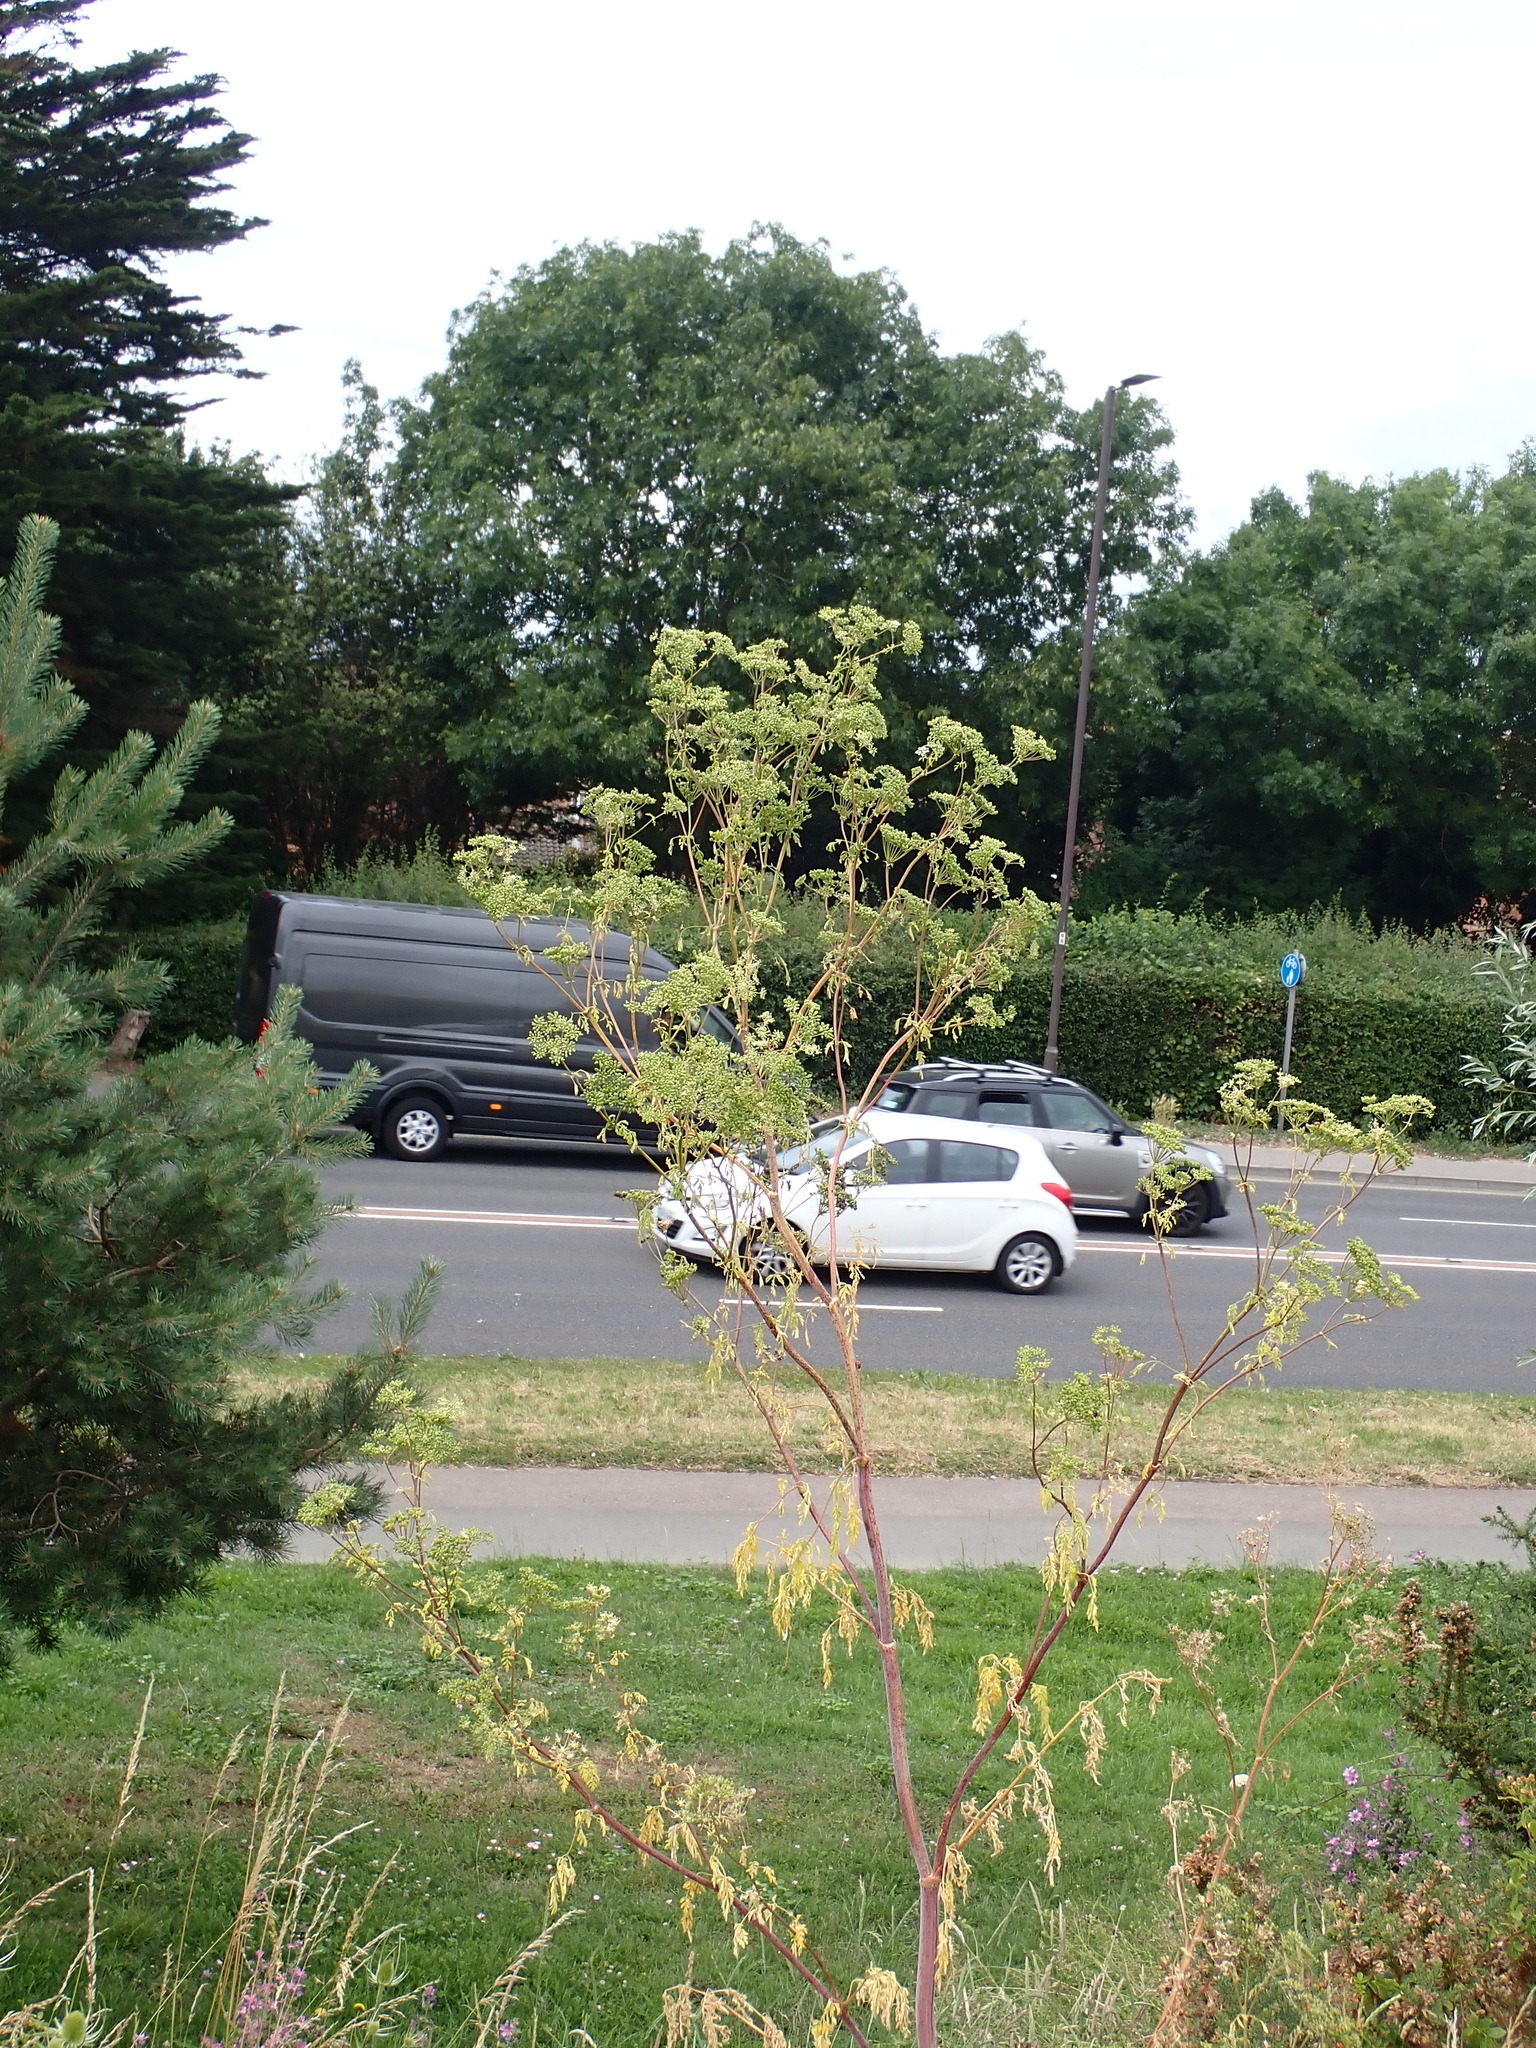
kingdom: Plantae
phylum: Tracheophyta
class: Magnoliopsida
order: Apiales
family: Apiaceae
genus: Conium
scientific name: Conium maculatum
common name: Hemlock
